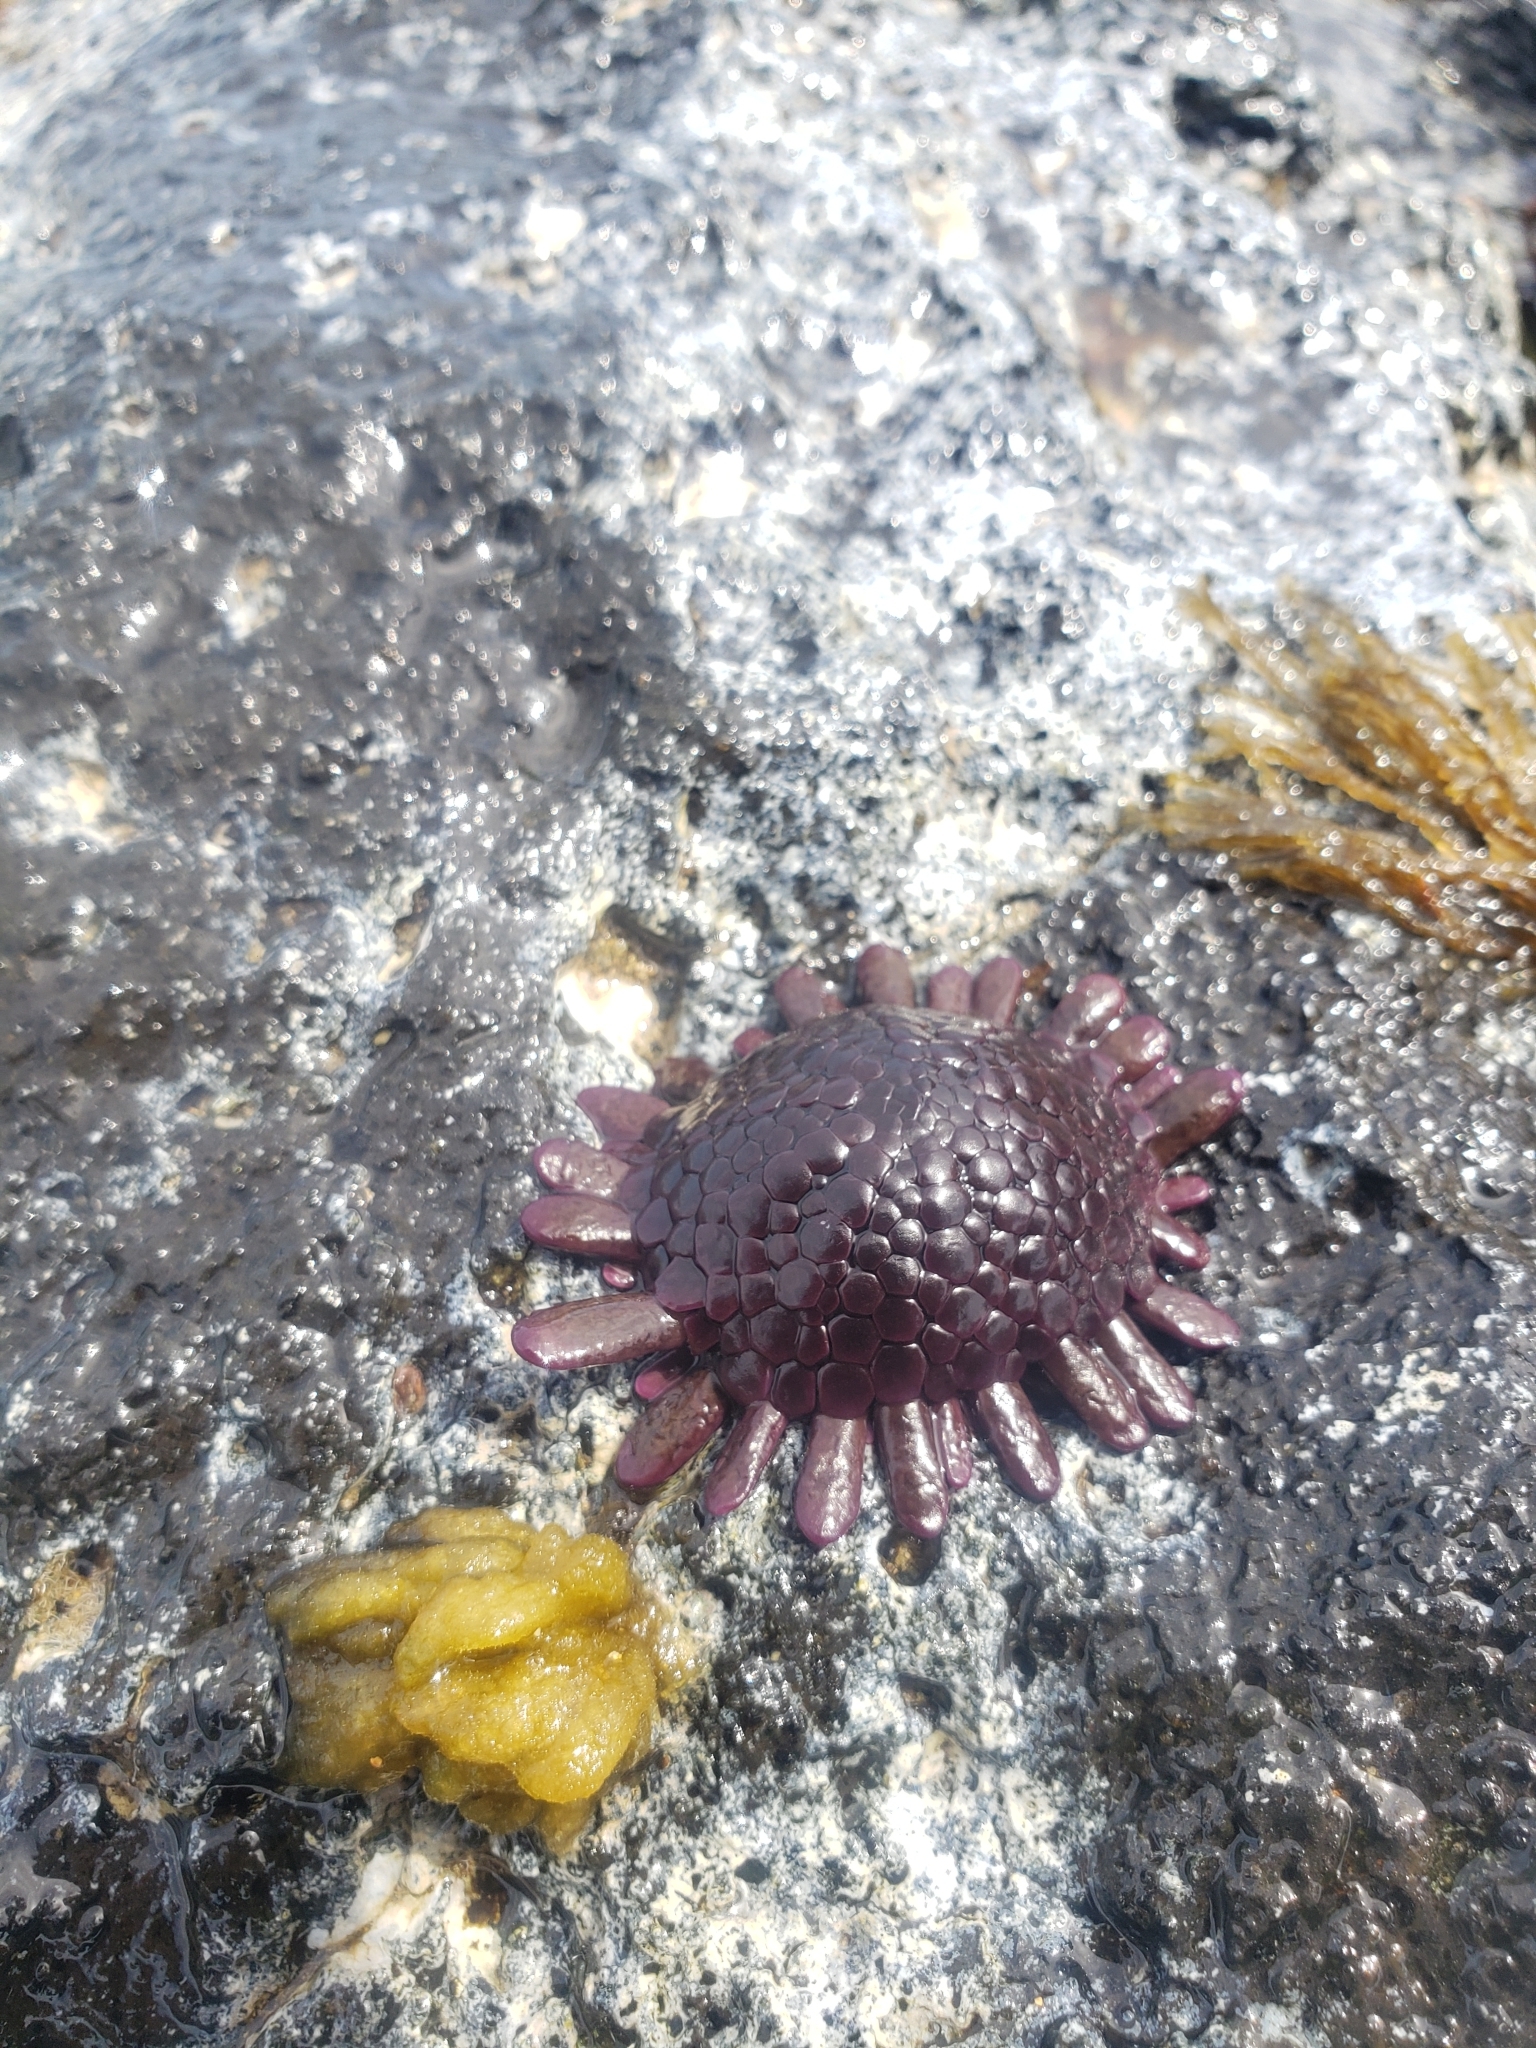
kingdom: Animalia
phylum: Echinodermata
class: Echinoidea
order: Camarodonta
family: Echinometridae
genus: Colobocentrotus
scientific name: Colobocentrotus atratus
